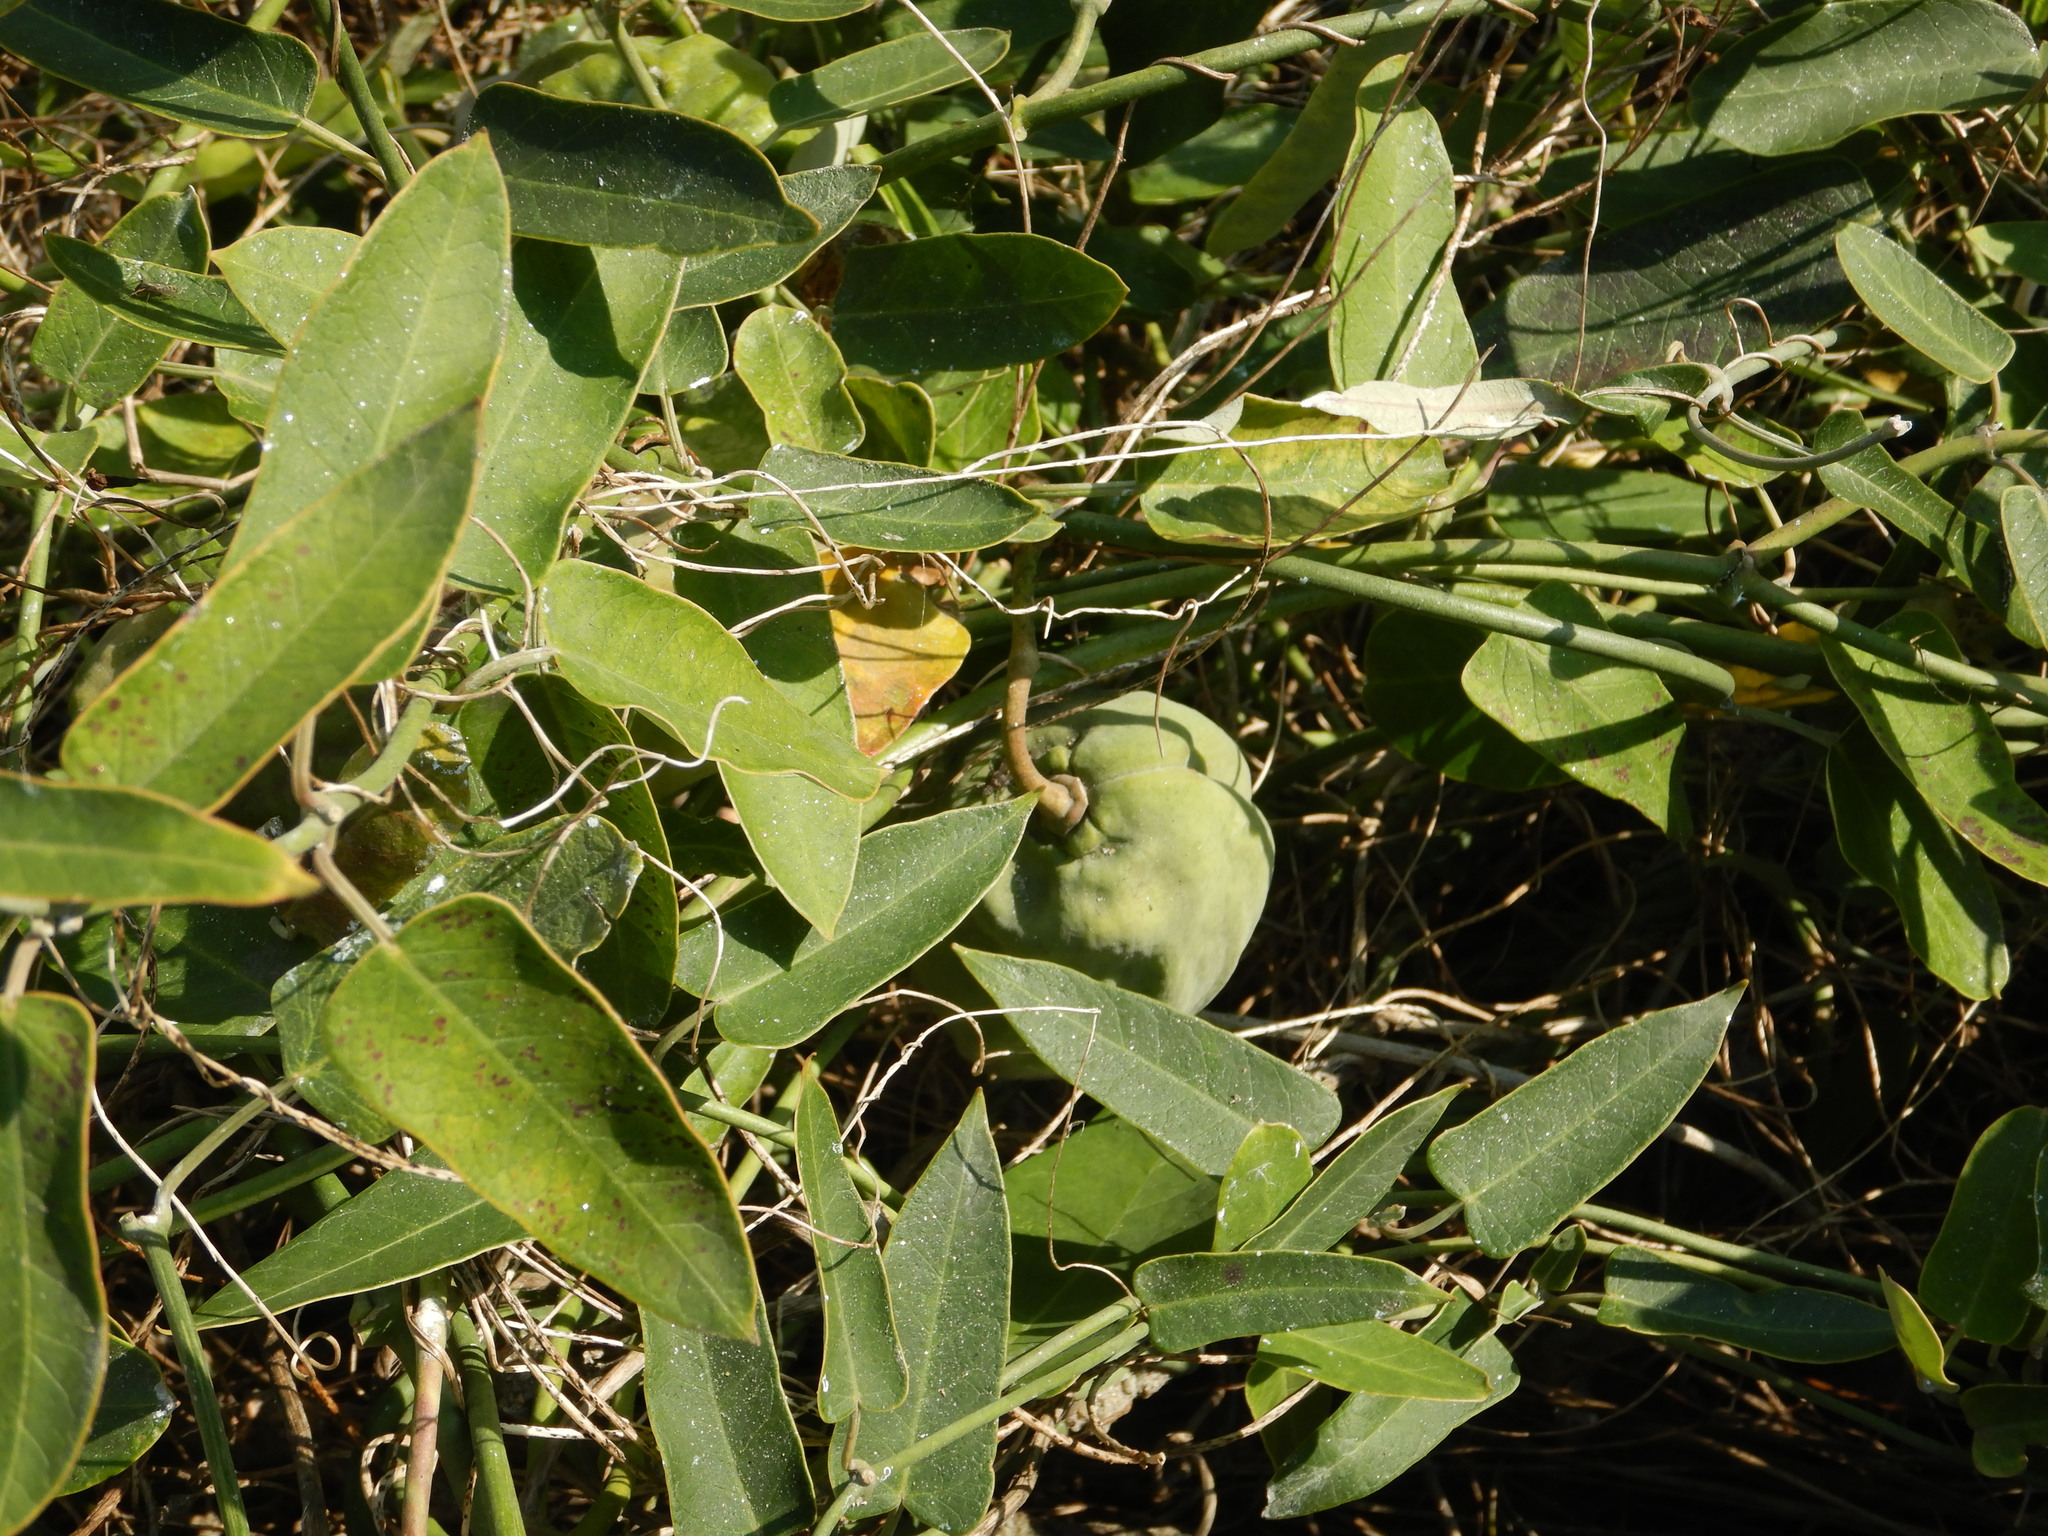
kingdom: Plantae
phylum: Tracheophyta
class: Magnoliopsida
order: Gentianales
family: Apocynaceae
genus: Araujia
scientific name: Araujia sericifera
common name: White bladderflower
